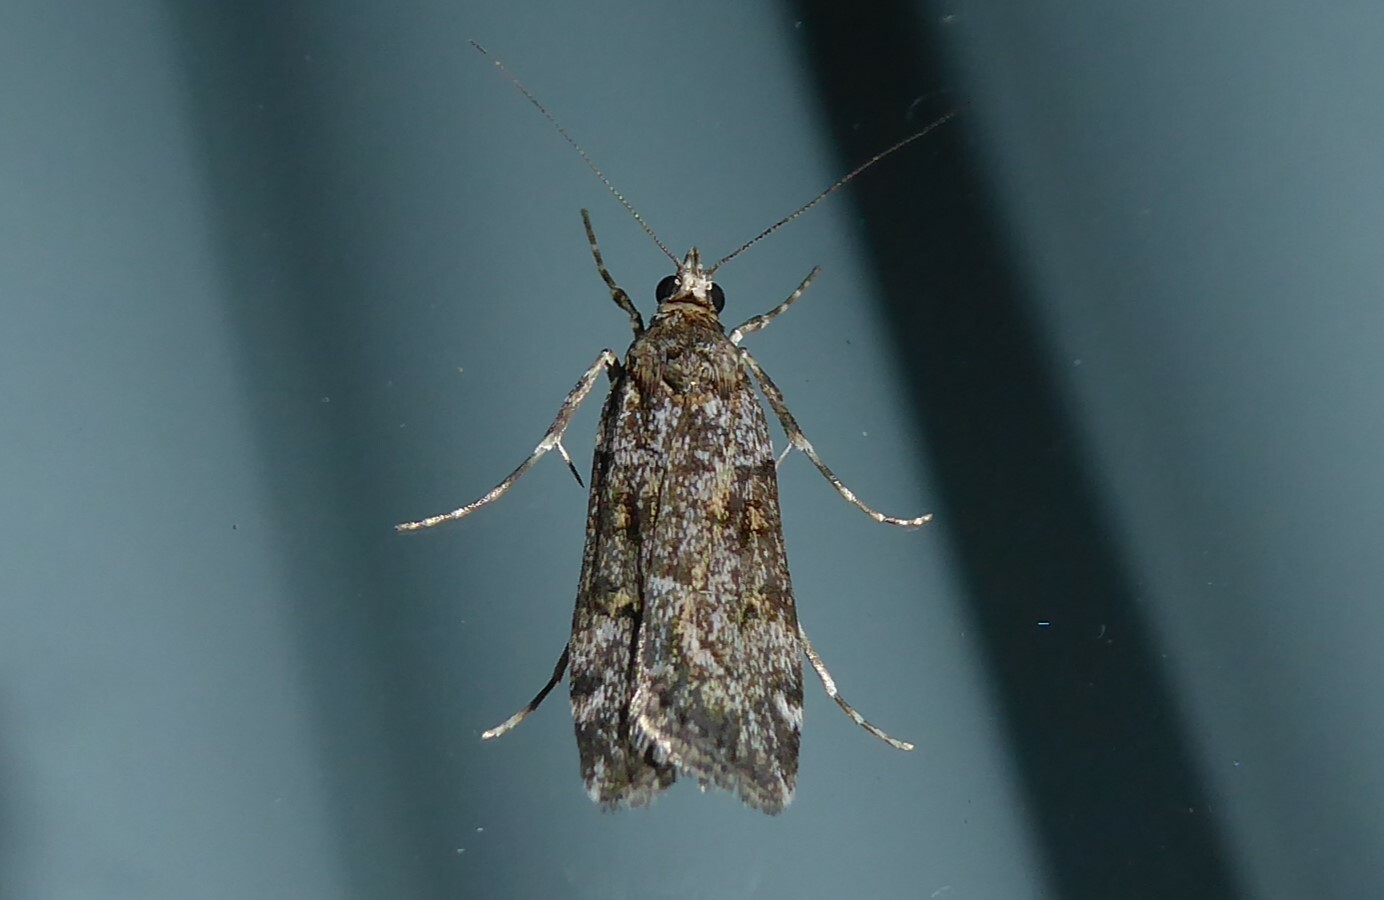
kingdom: Animalia
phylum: Arthropoda
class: Insecta
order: Lepidoptera
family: Crambidae
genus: Scoparia
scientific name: Scoparia tetracycla
